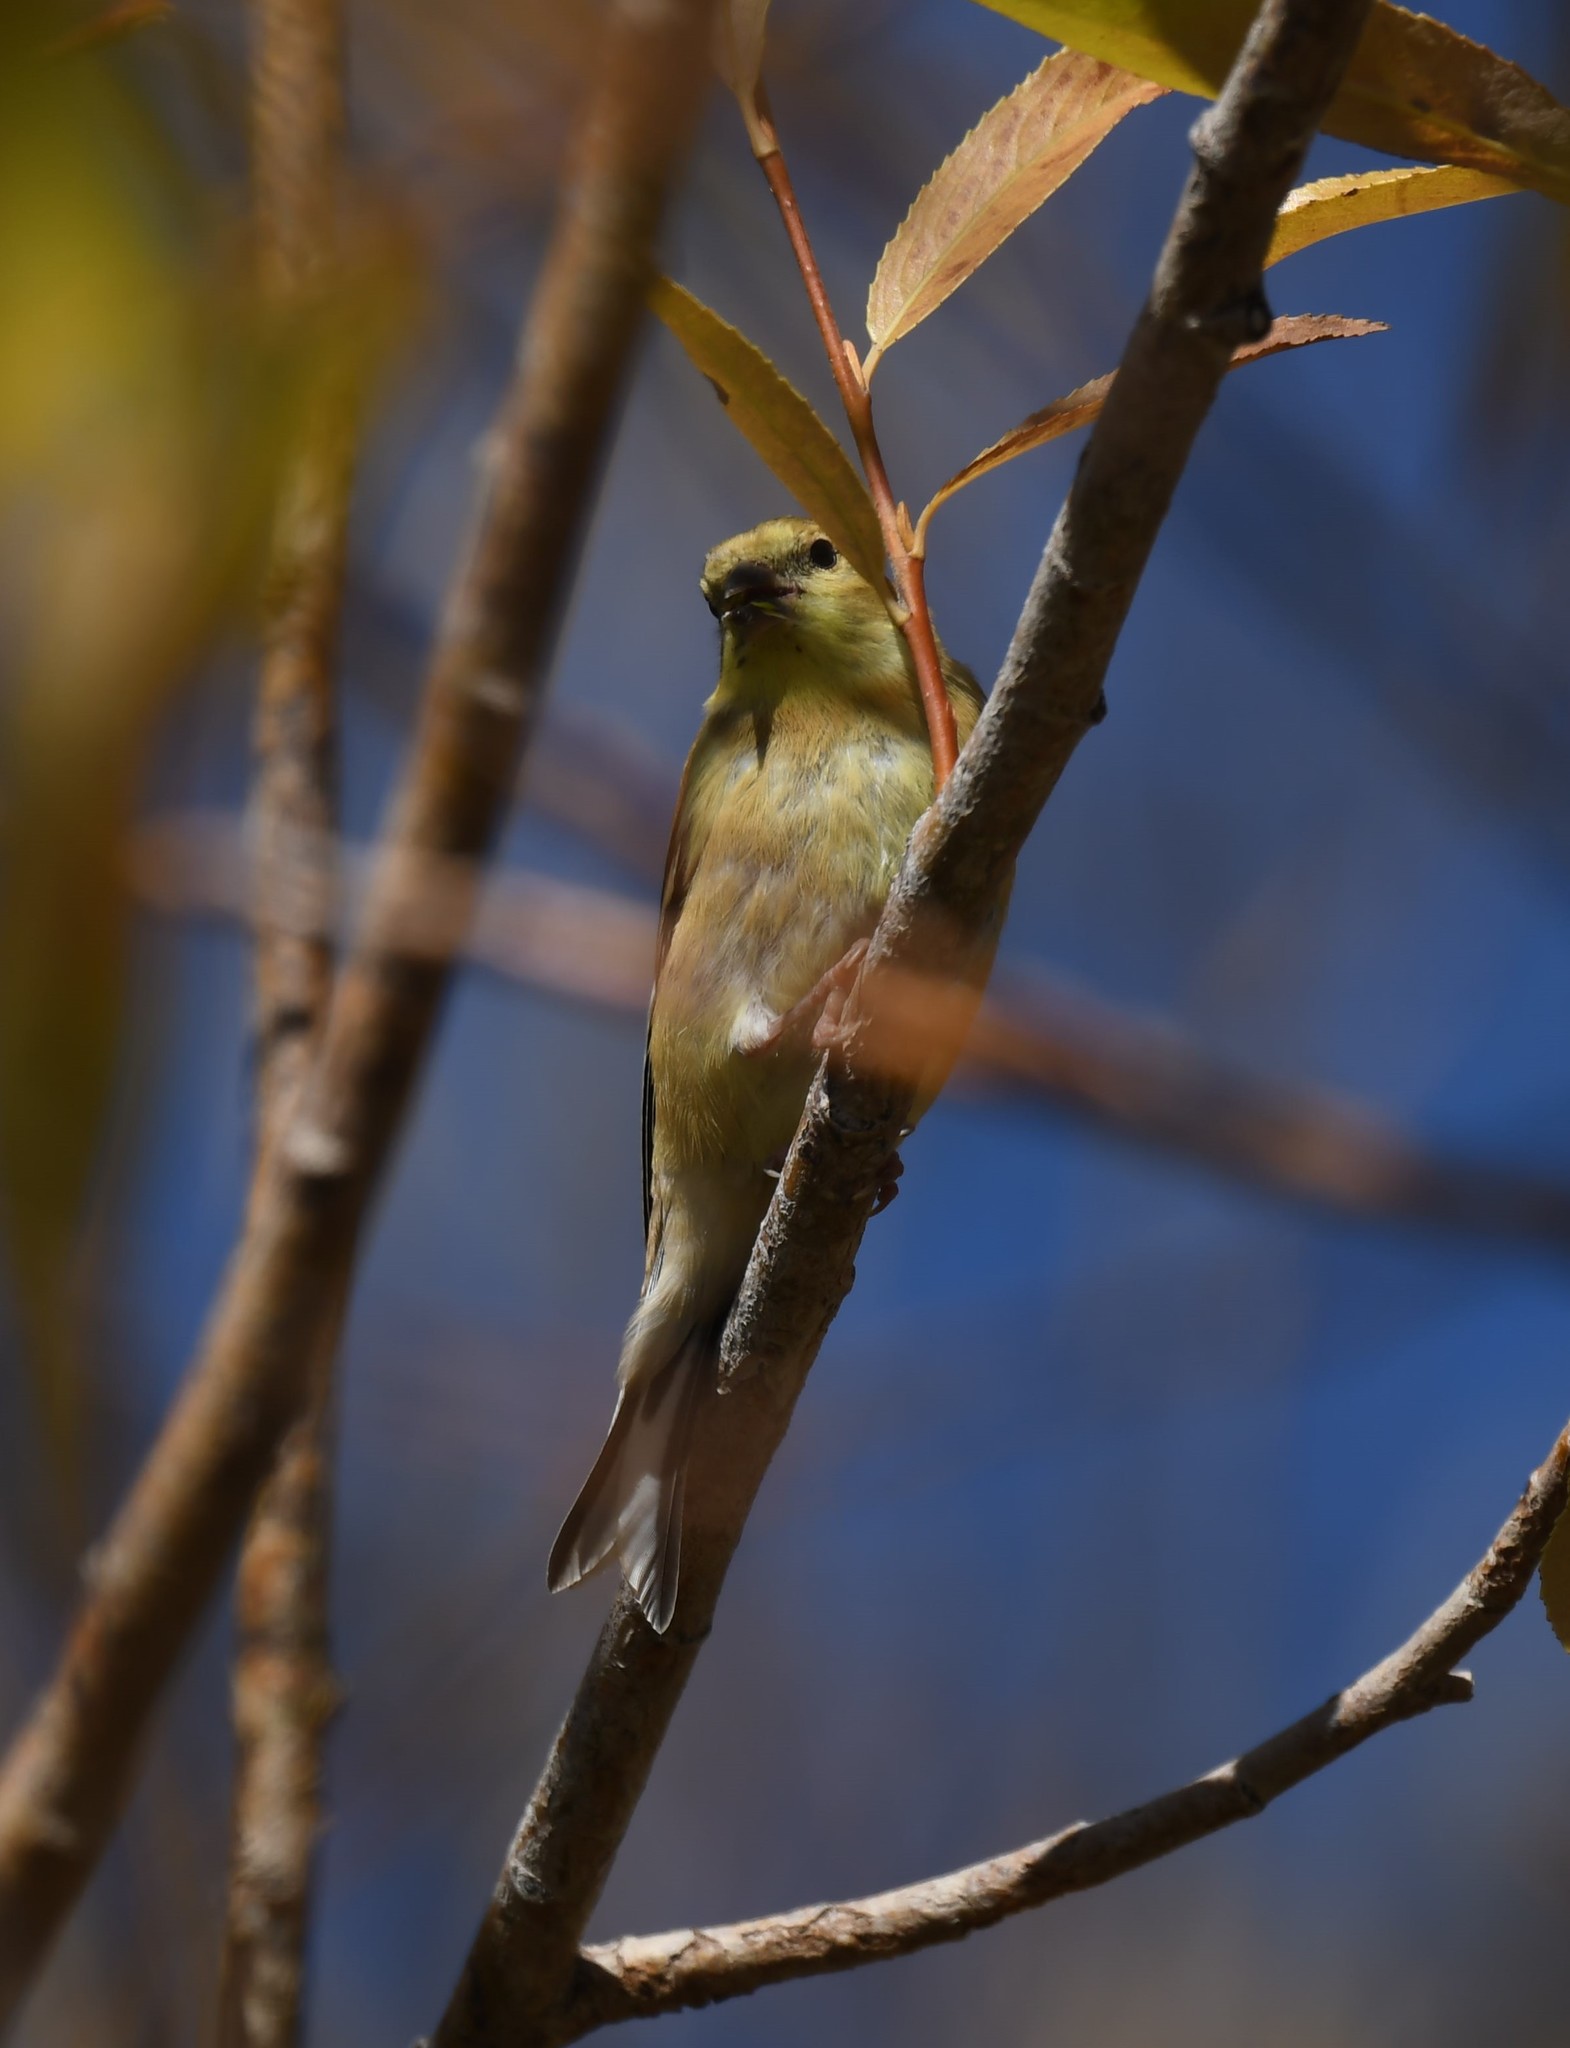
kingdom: Animalia
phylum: Chordata
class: Aves
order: Passeriformes
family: Fringillidae
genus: Spinus
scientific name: Spinus tristis
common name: American goldfinch
